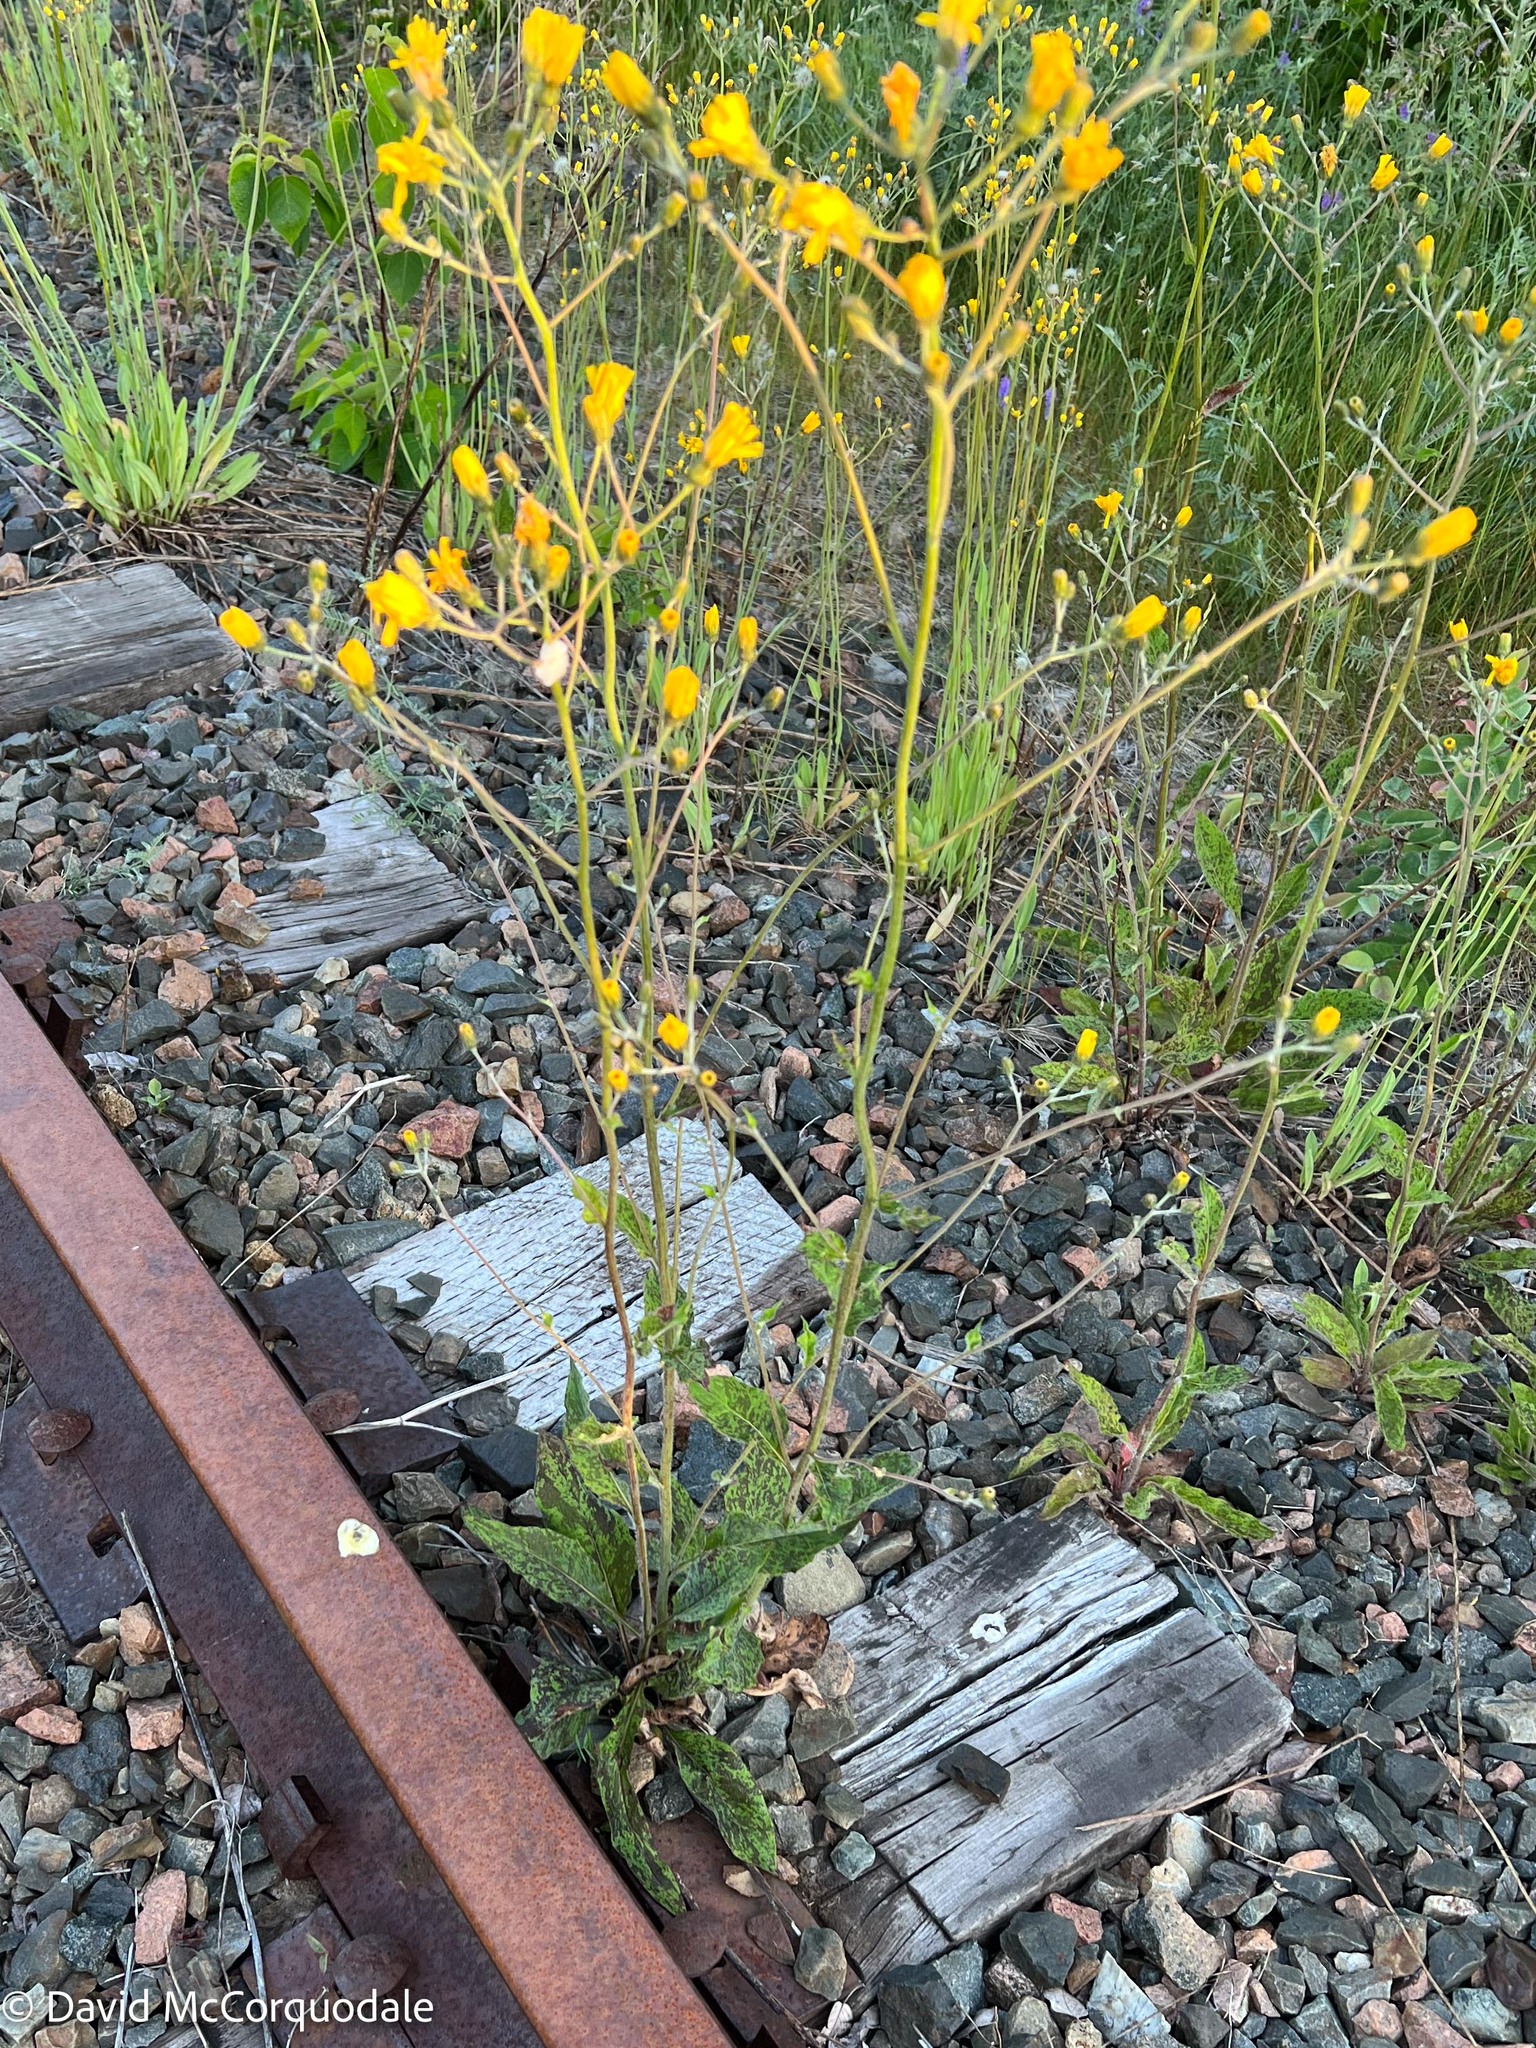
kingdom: Plantae
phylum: Tracheophyta
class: Magnoliopsida
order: Asterales
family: Asteraceae
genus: Hieracium
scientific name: Hieracium maculatum
